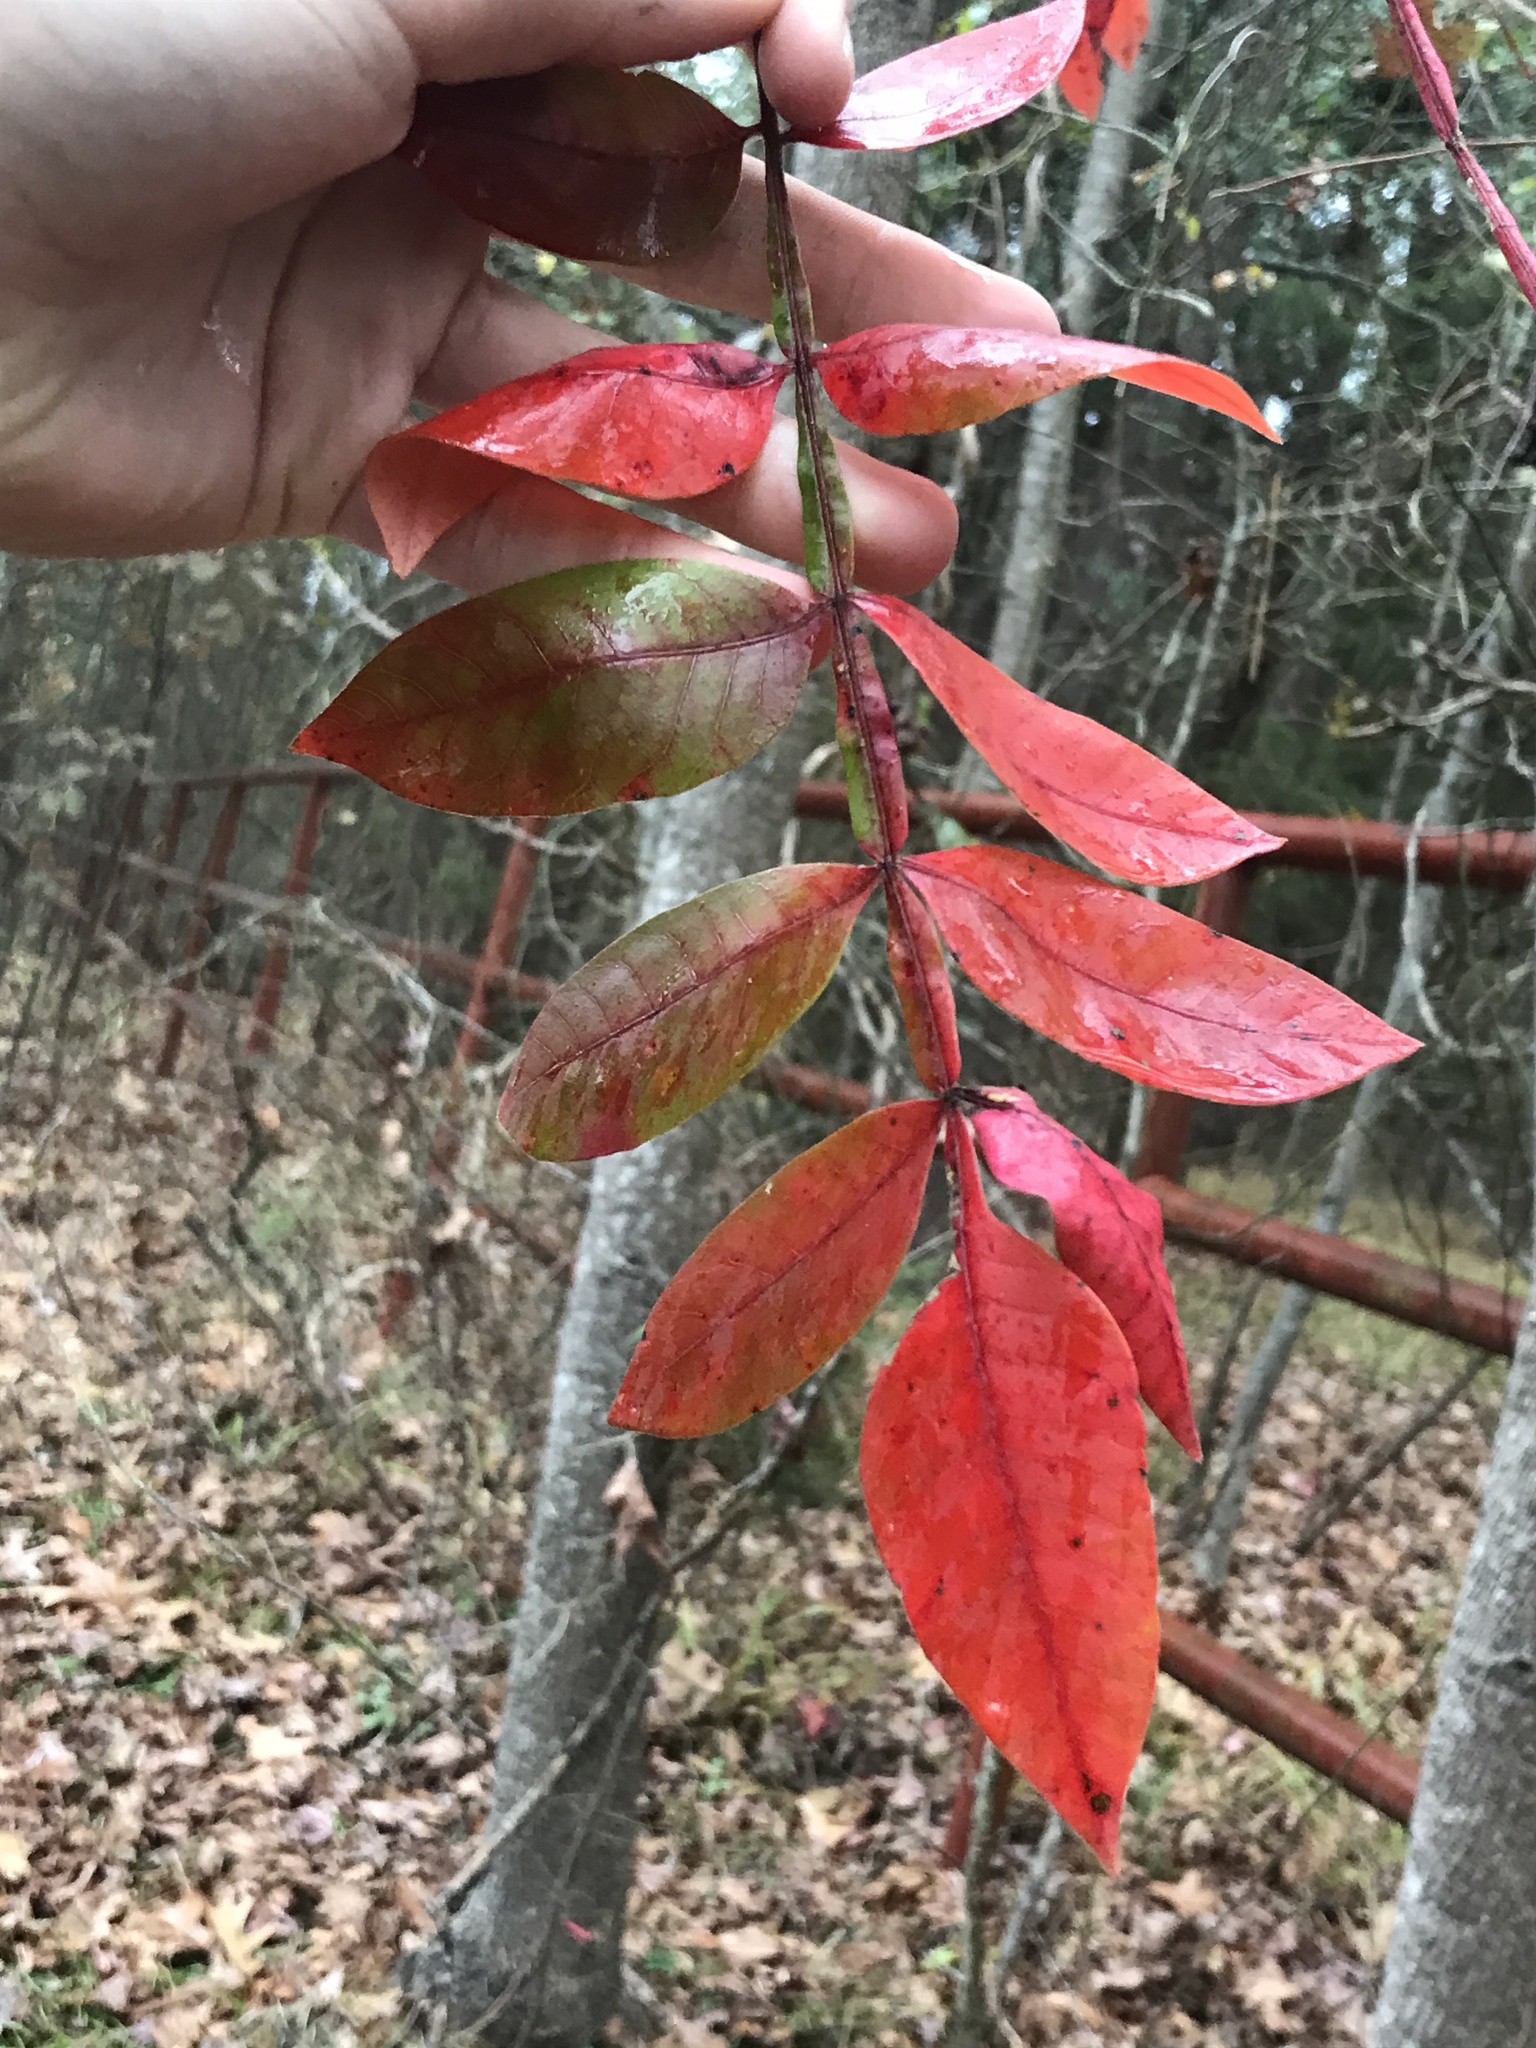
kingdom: Plantae
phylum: Tracheophyta
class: Magnoliopsida
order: Sapindales
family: Anacardiaceae
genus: Rhus
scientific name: Rhus copallina
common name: Shining sumac
